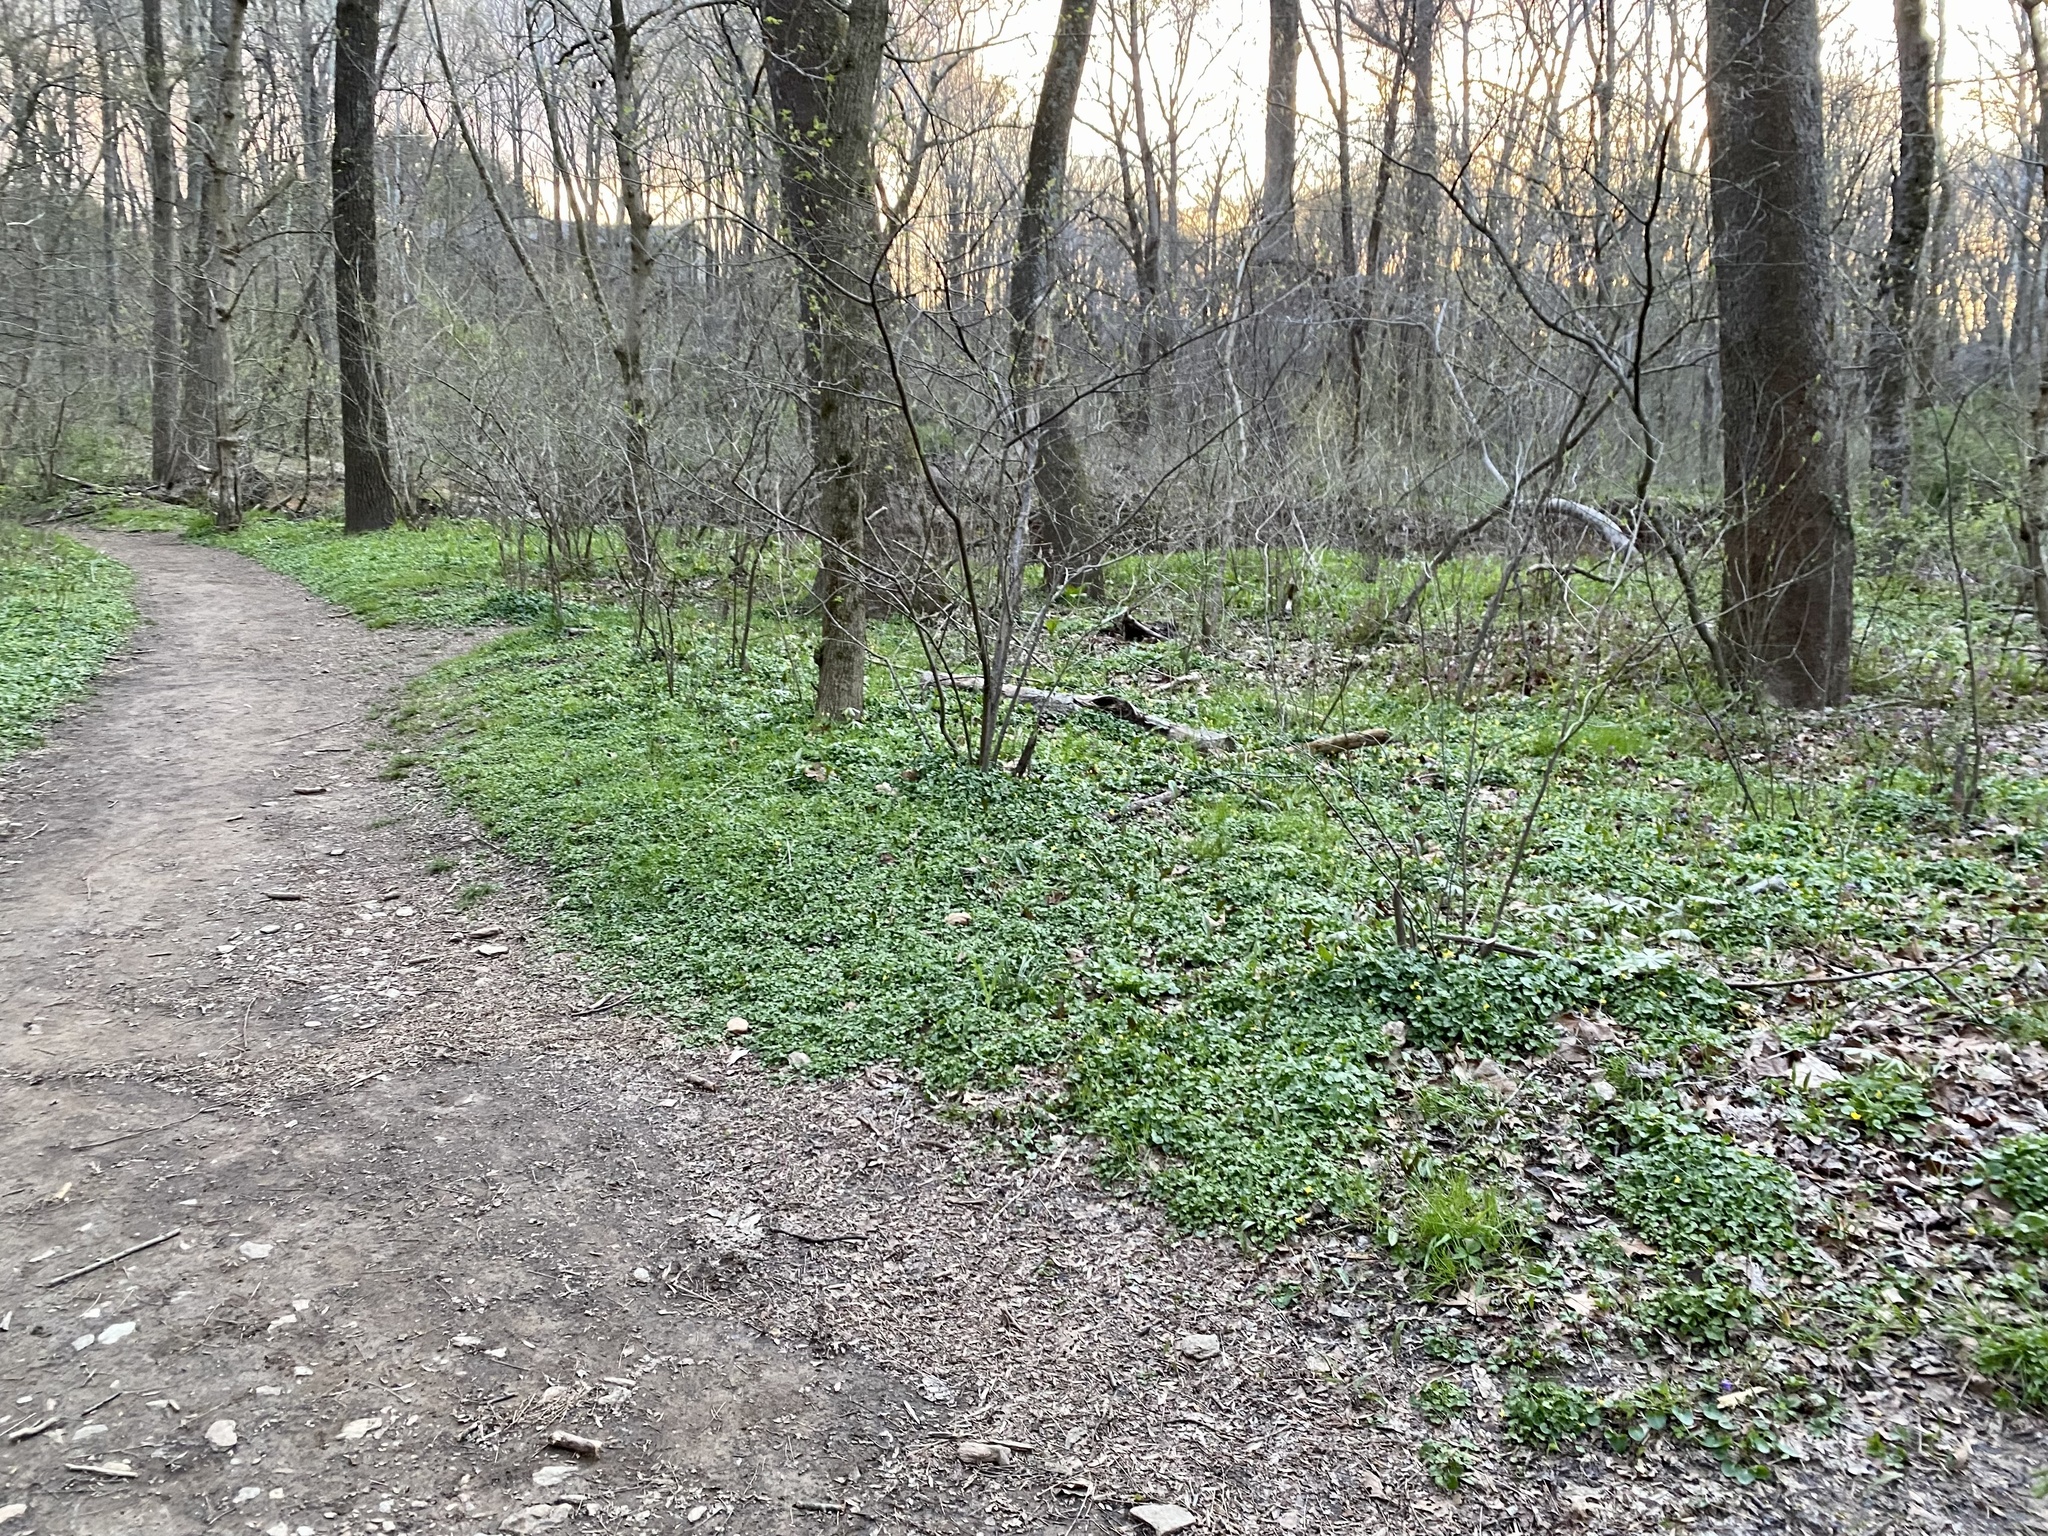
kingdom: Plantae
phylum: Tracheophyta
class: Magnoliopsida
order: Ranunculales
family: Ranunculaceae
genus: Ficaria
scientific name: Ficaria verna
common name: Lesser celandine
